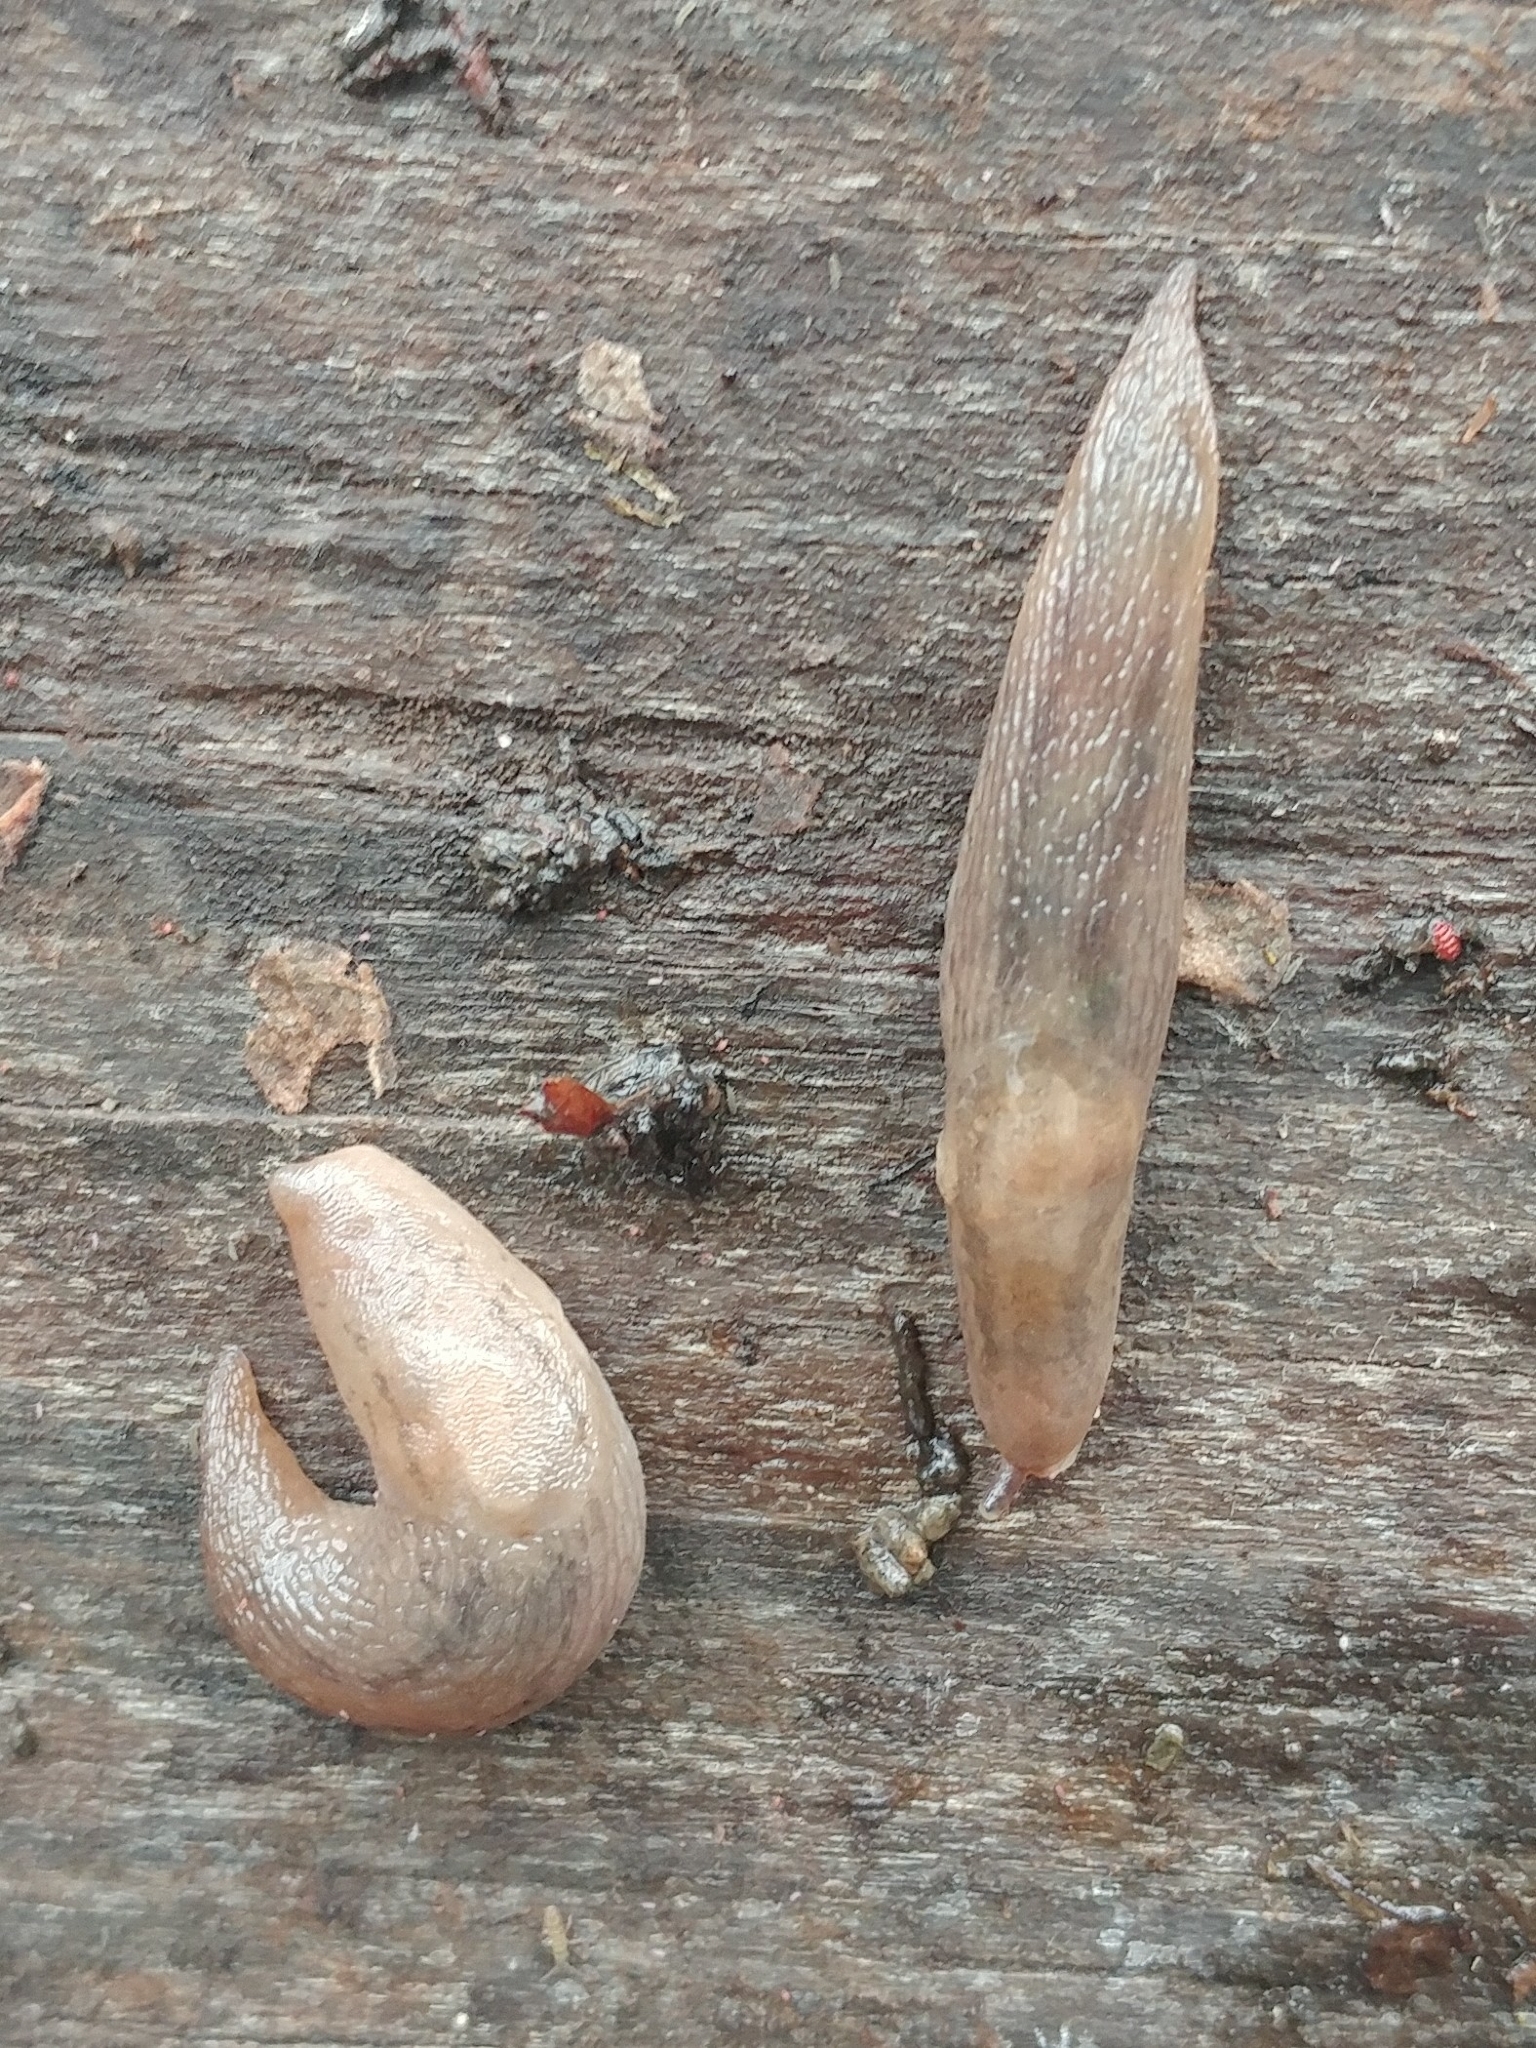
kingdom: Animalia
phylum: Mollusca
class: Gastropoda
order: Stylommatophora
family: Limacidae
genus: Ambigolimax
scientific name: Ambigolimax
